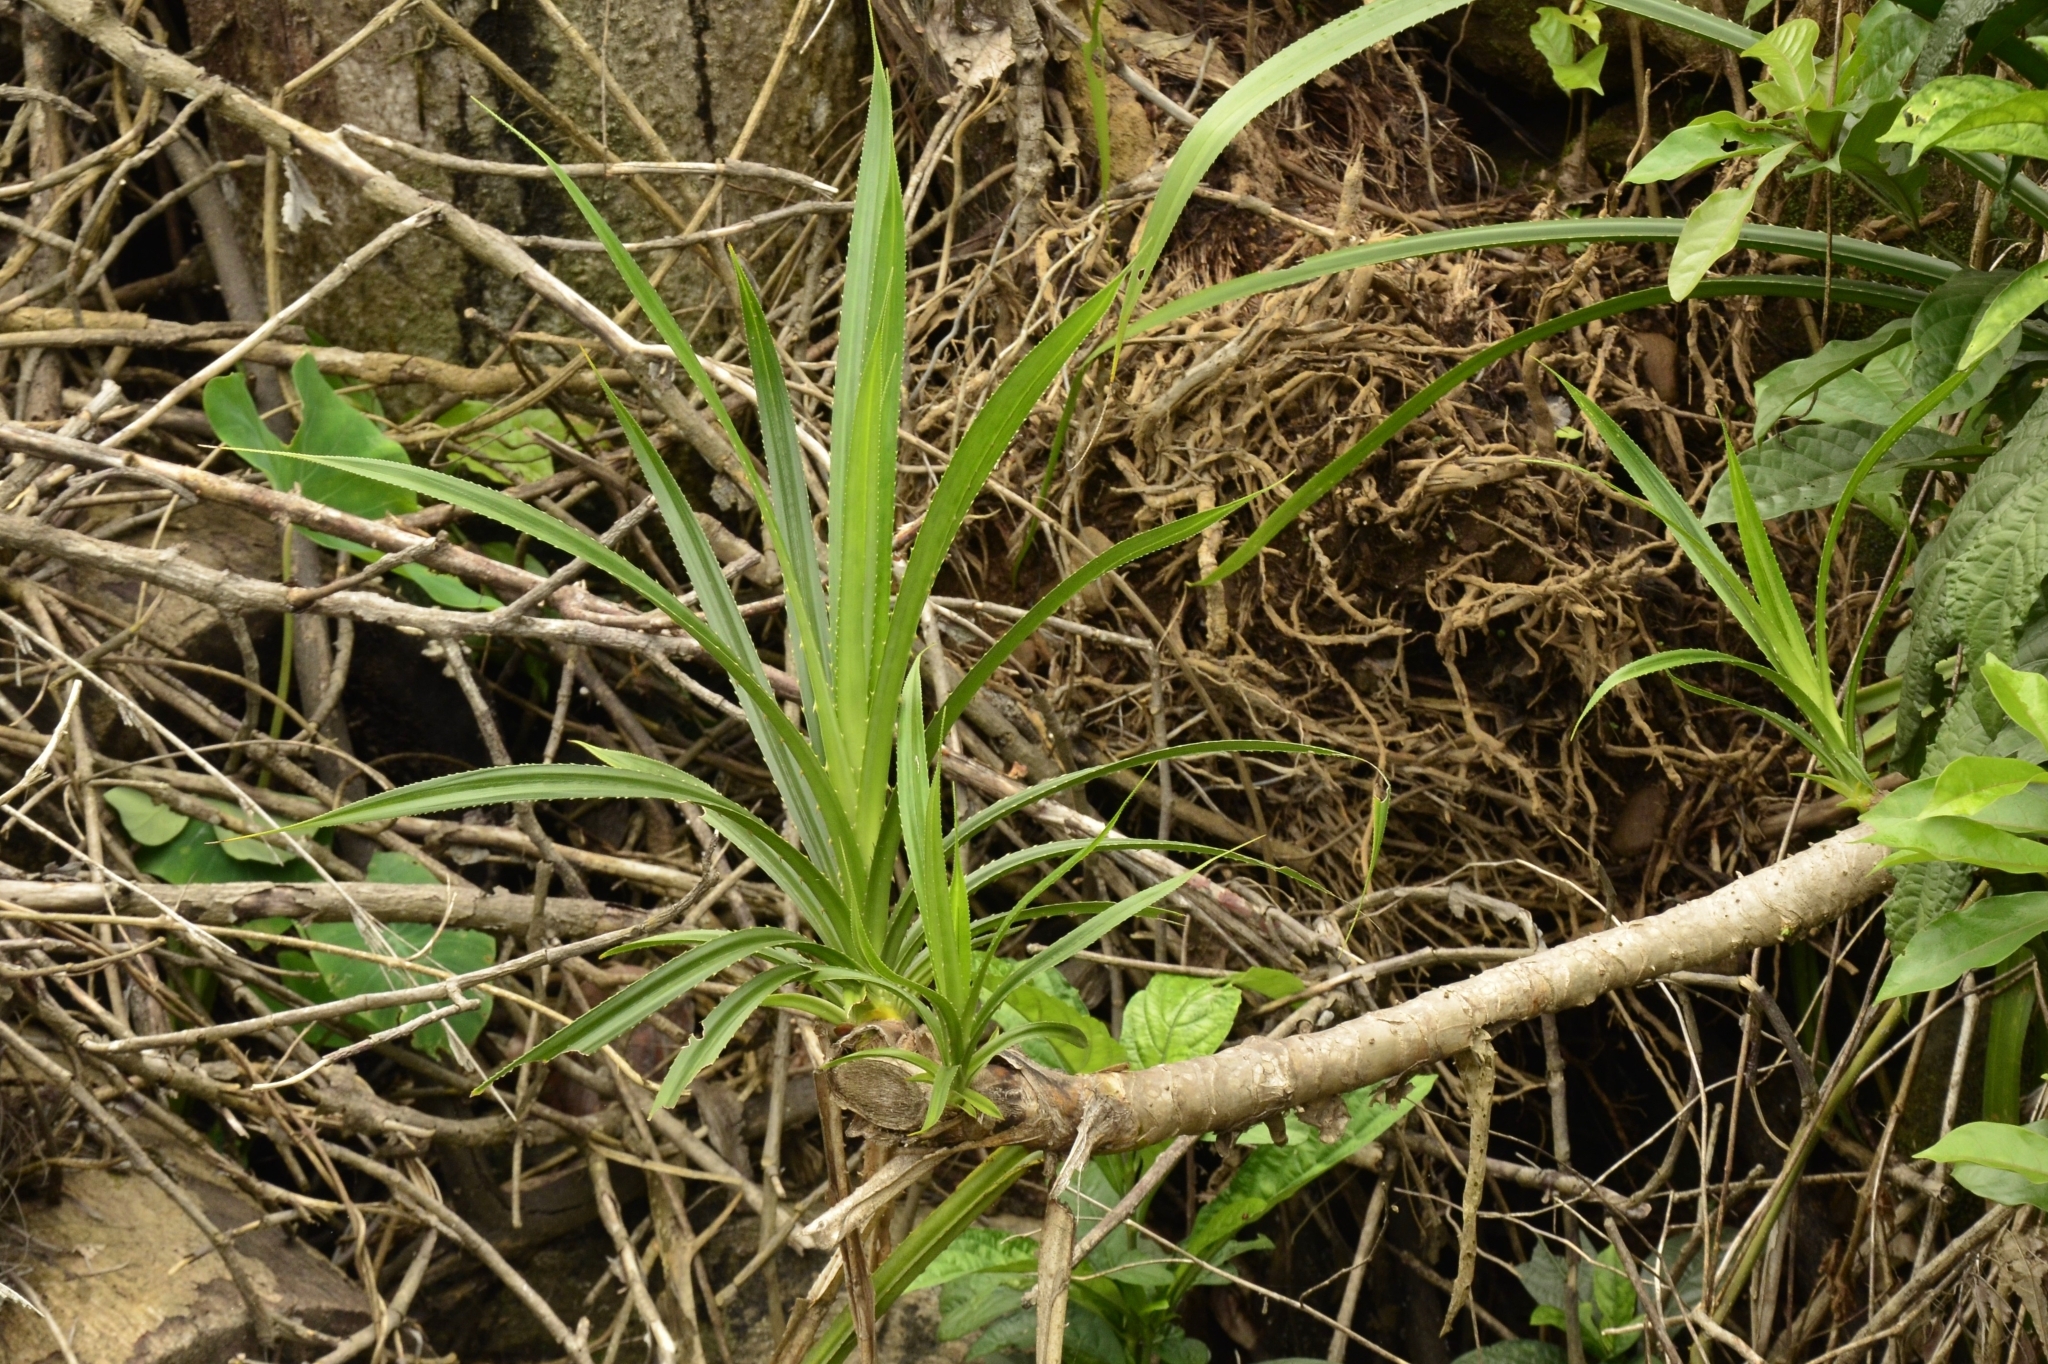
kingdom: Plantae
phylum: Tracheophyta
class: Liliopsida
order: Pandanales
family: Pandanaceae
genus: Pandanus
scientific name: Pandanus odorifer
